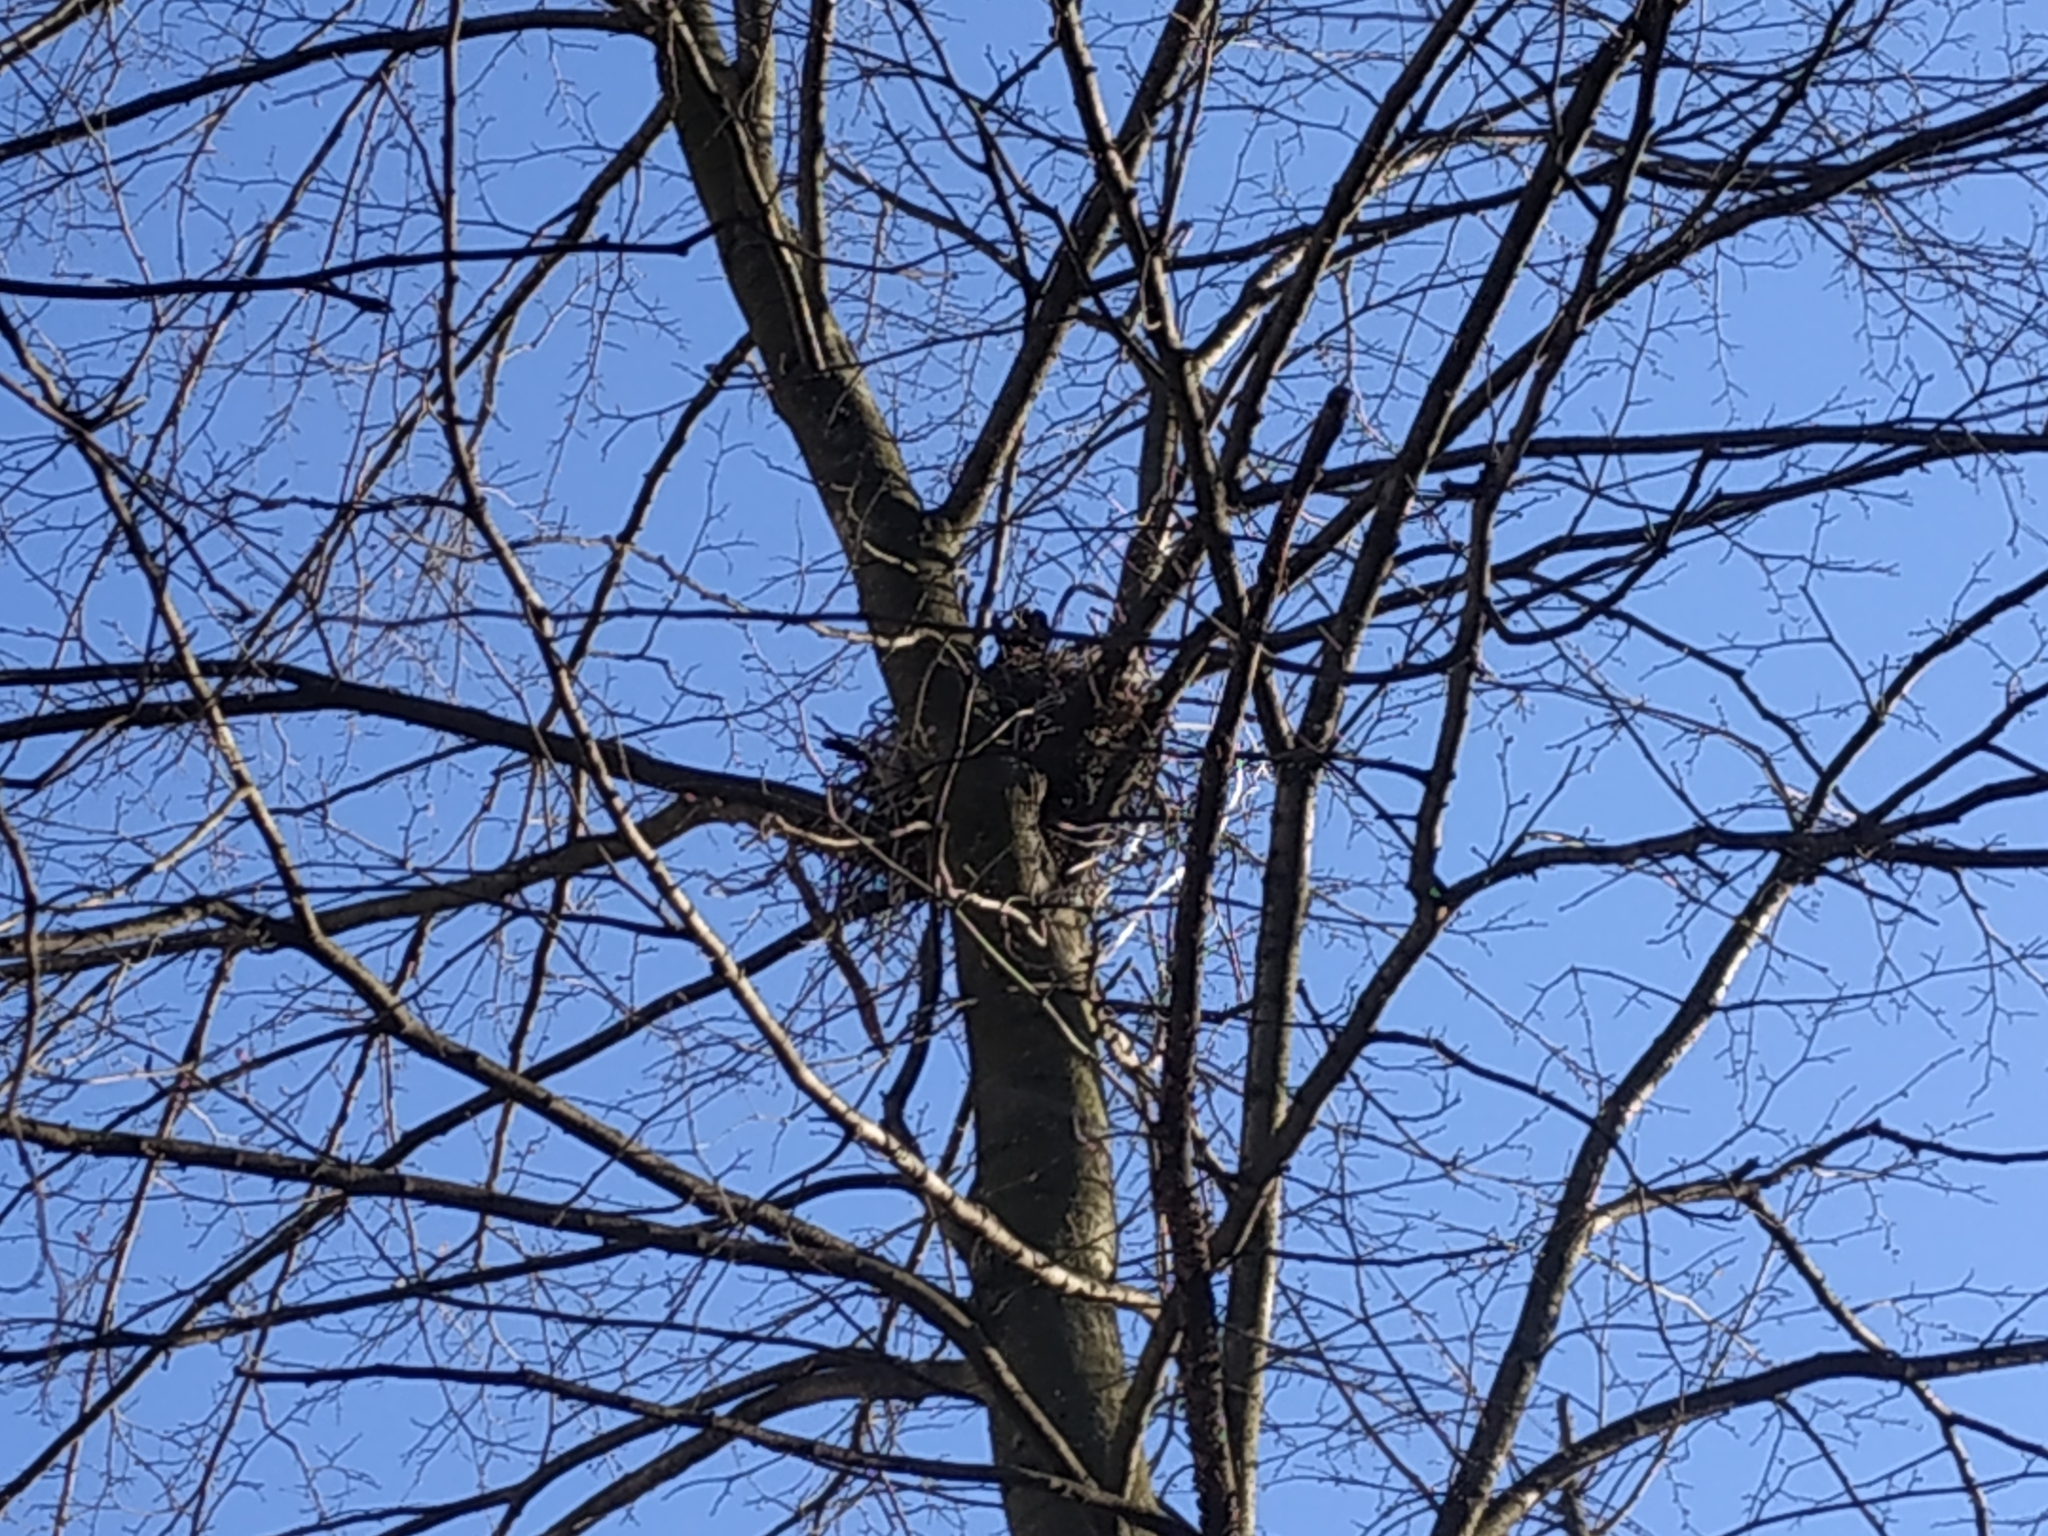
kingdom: Animalia
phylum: Chordata
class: Aves
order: Passeriformes
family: Corvidae
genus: Corvus
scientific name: Corvus cornix
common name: Hooded crow
